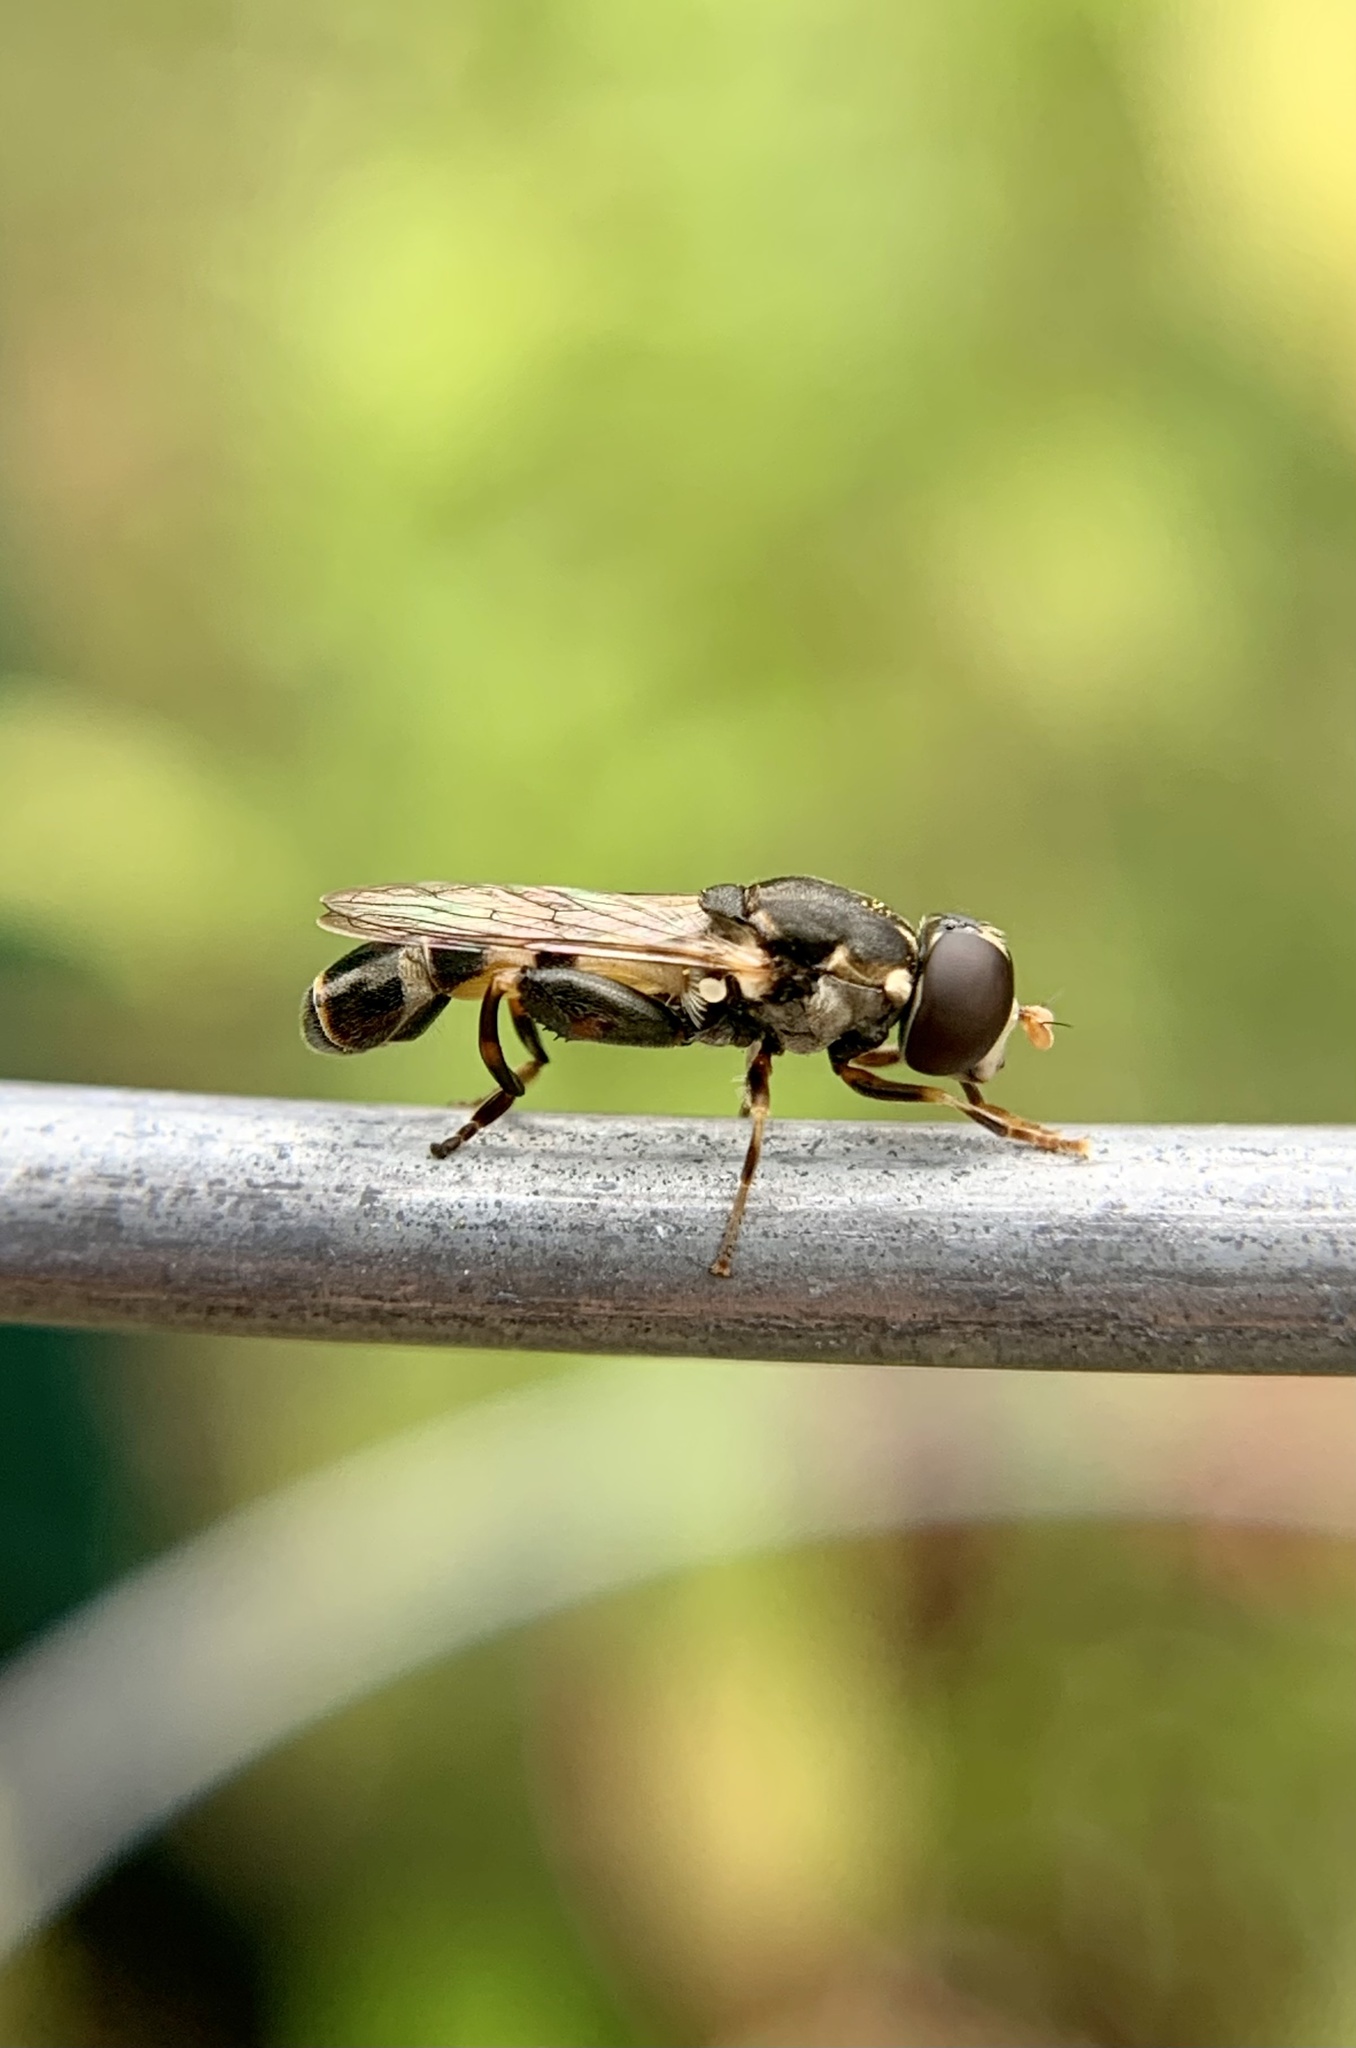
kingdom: Animalia
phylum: Arthropoda
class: Insecta
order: Diptera
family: Syrphidae
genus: Syritta
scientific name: Syritta pipiens
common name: Hover fly
